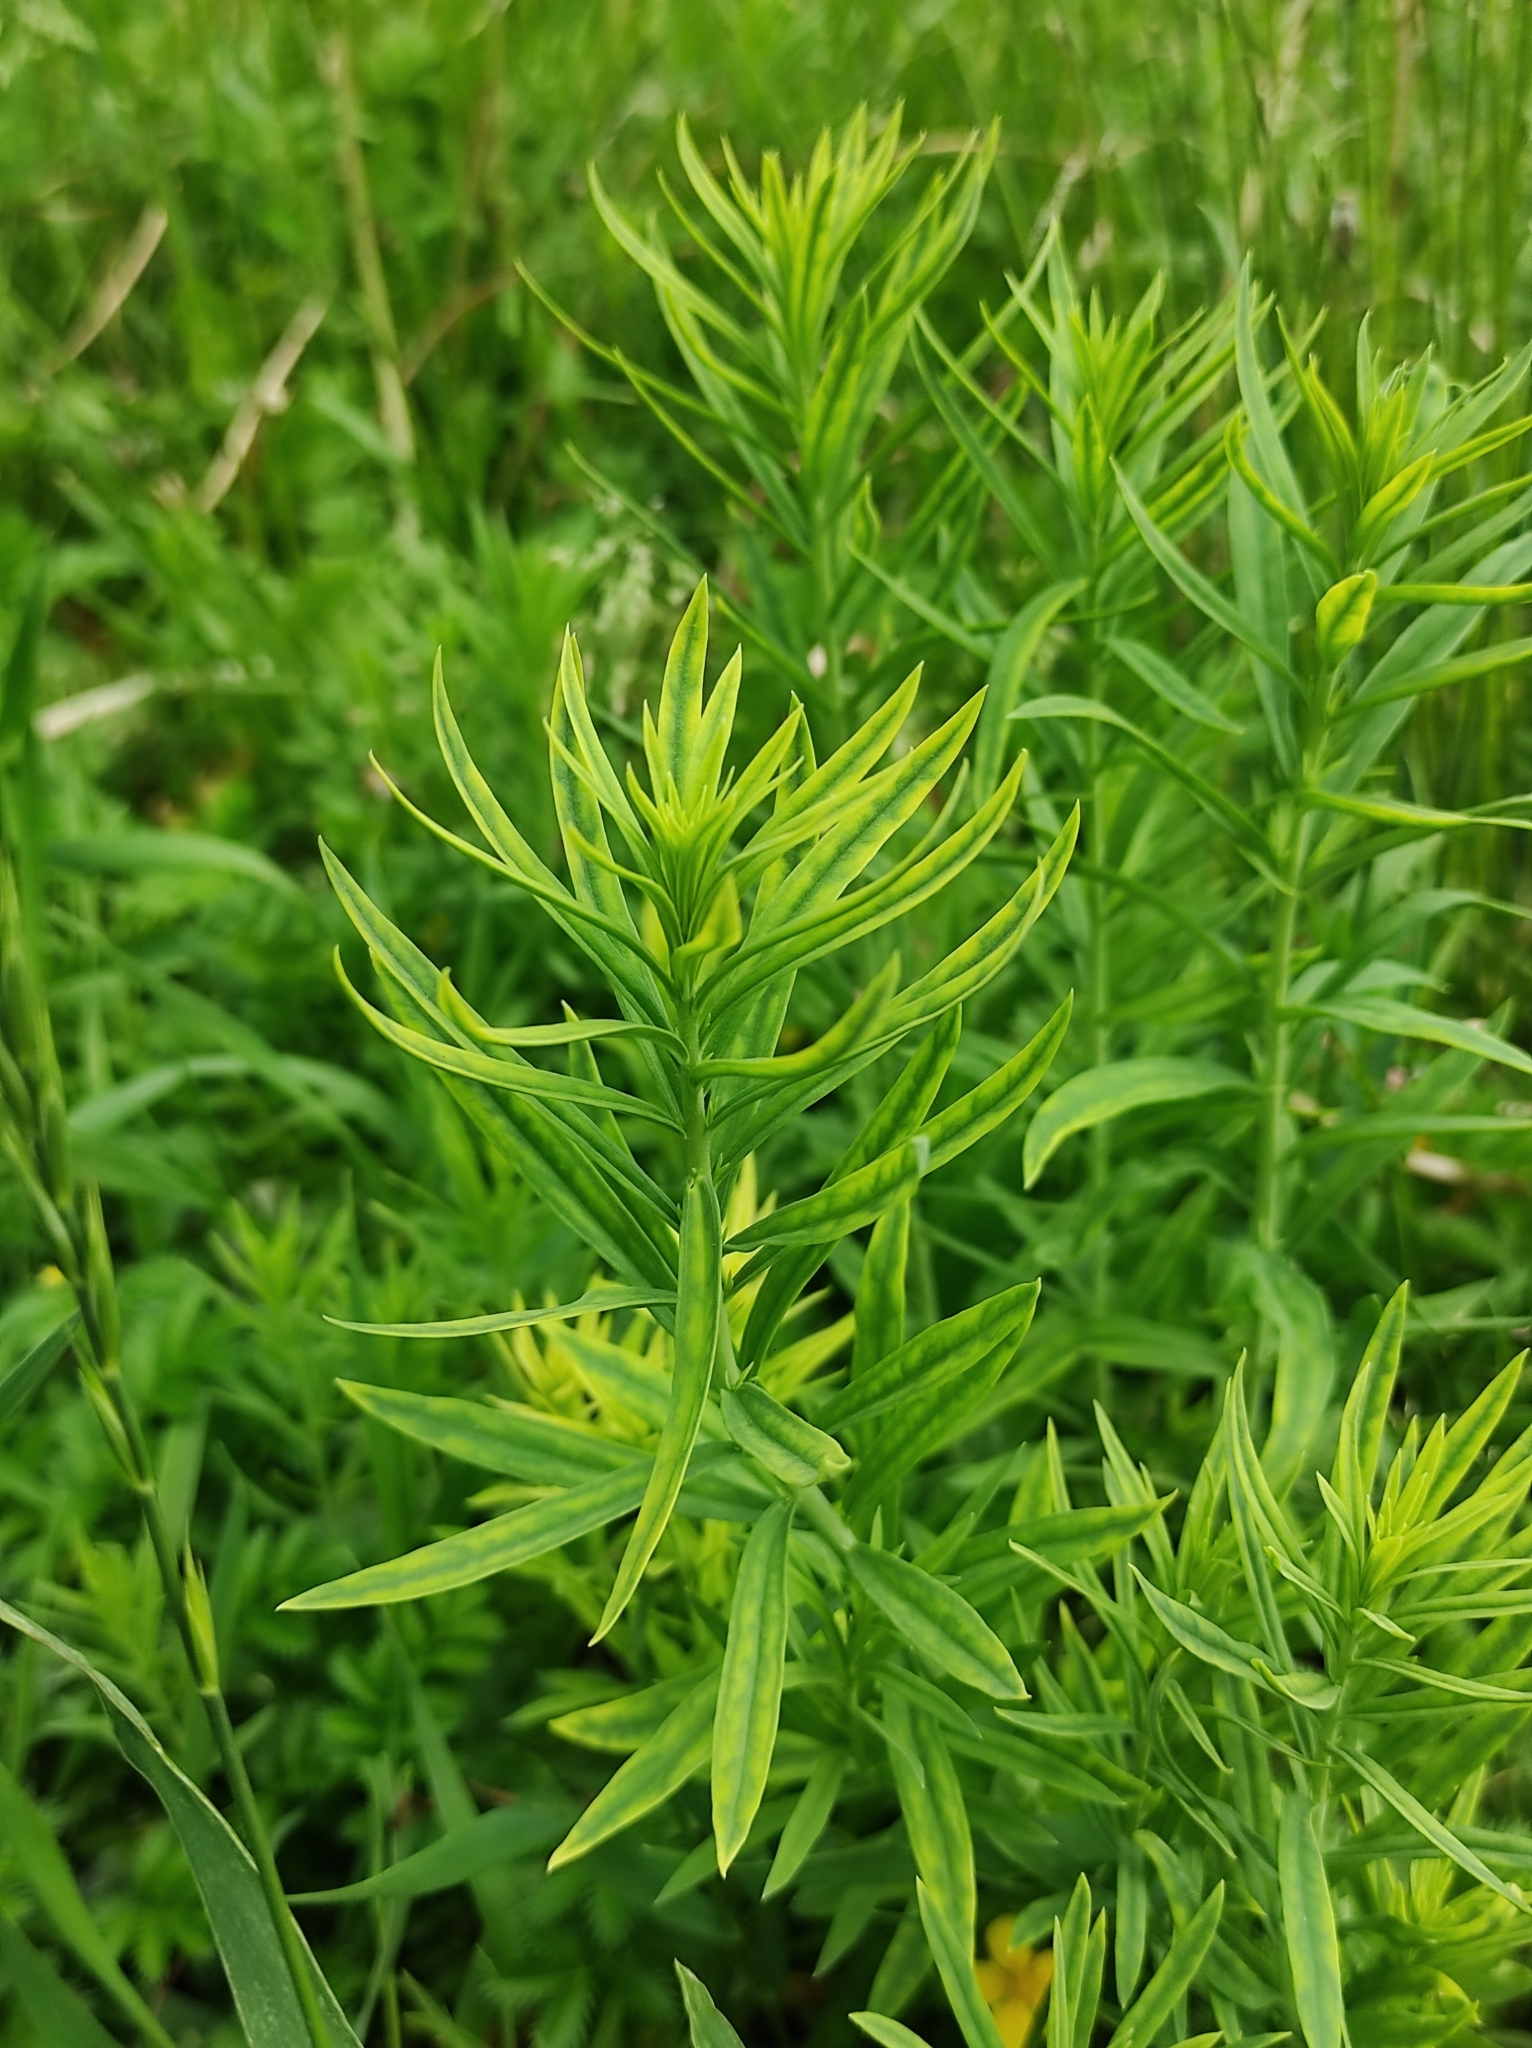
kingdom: Plantae
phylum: Tracheophyta
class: Magnoliopsida
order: Lamiales
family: Plantaginaceae
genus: Linaria
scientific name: Linaria vulgaris
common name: Butter and eggs
